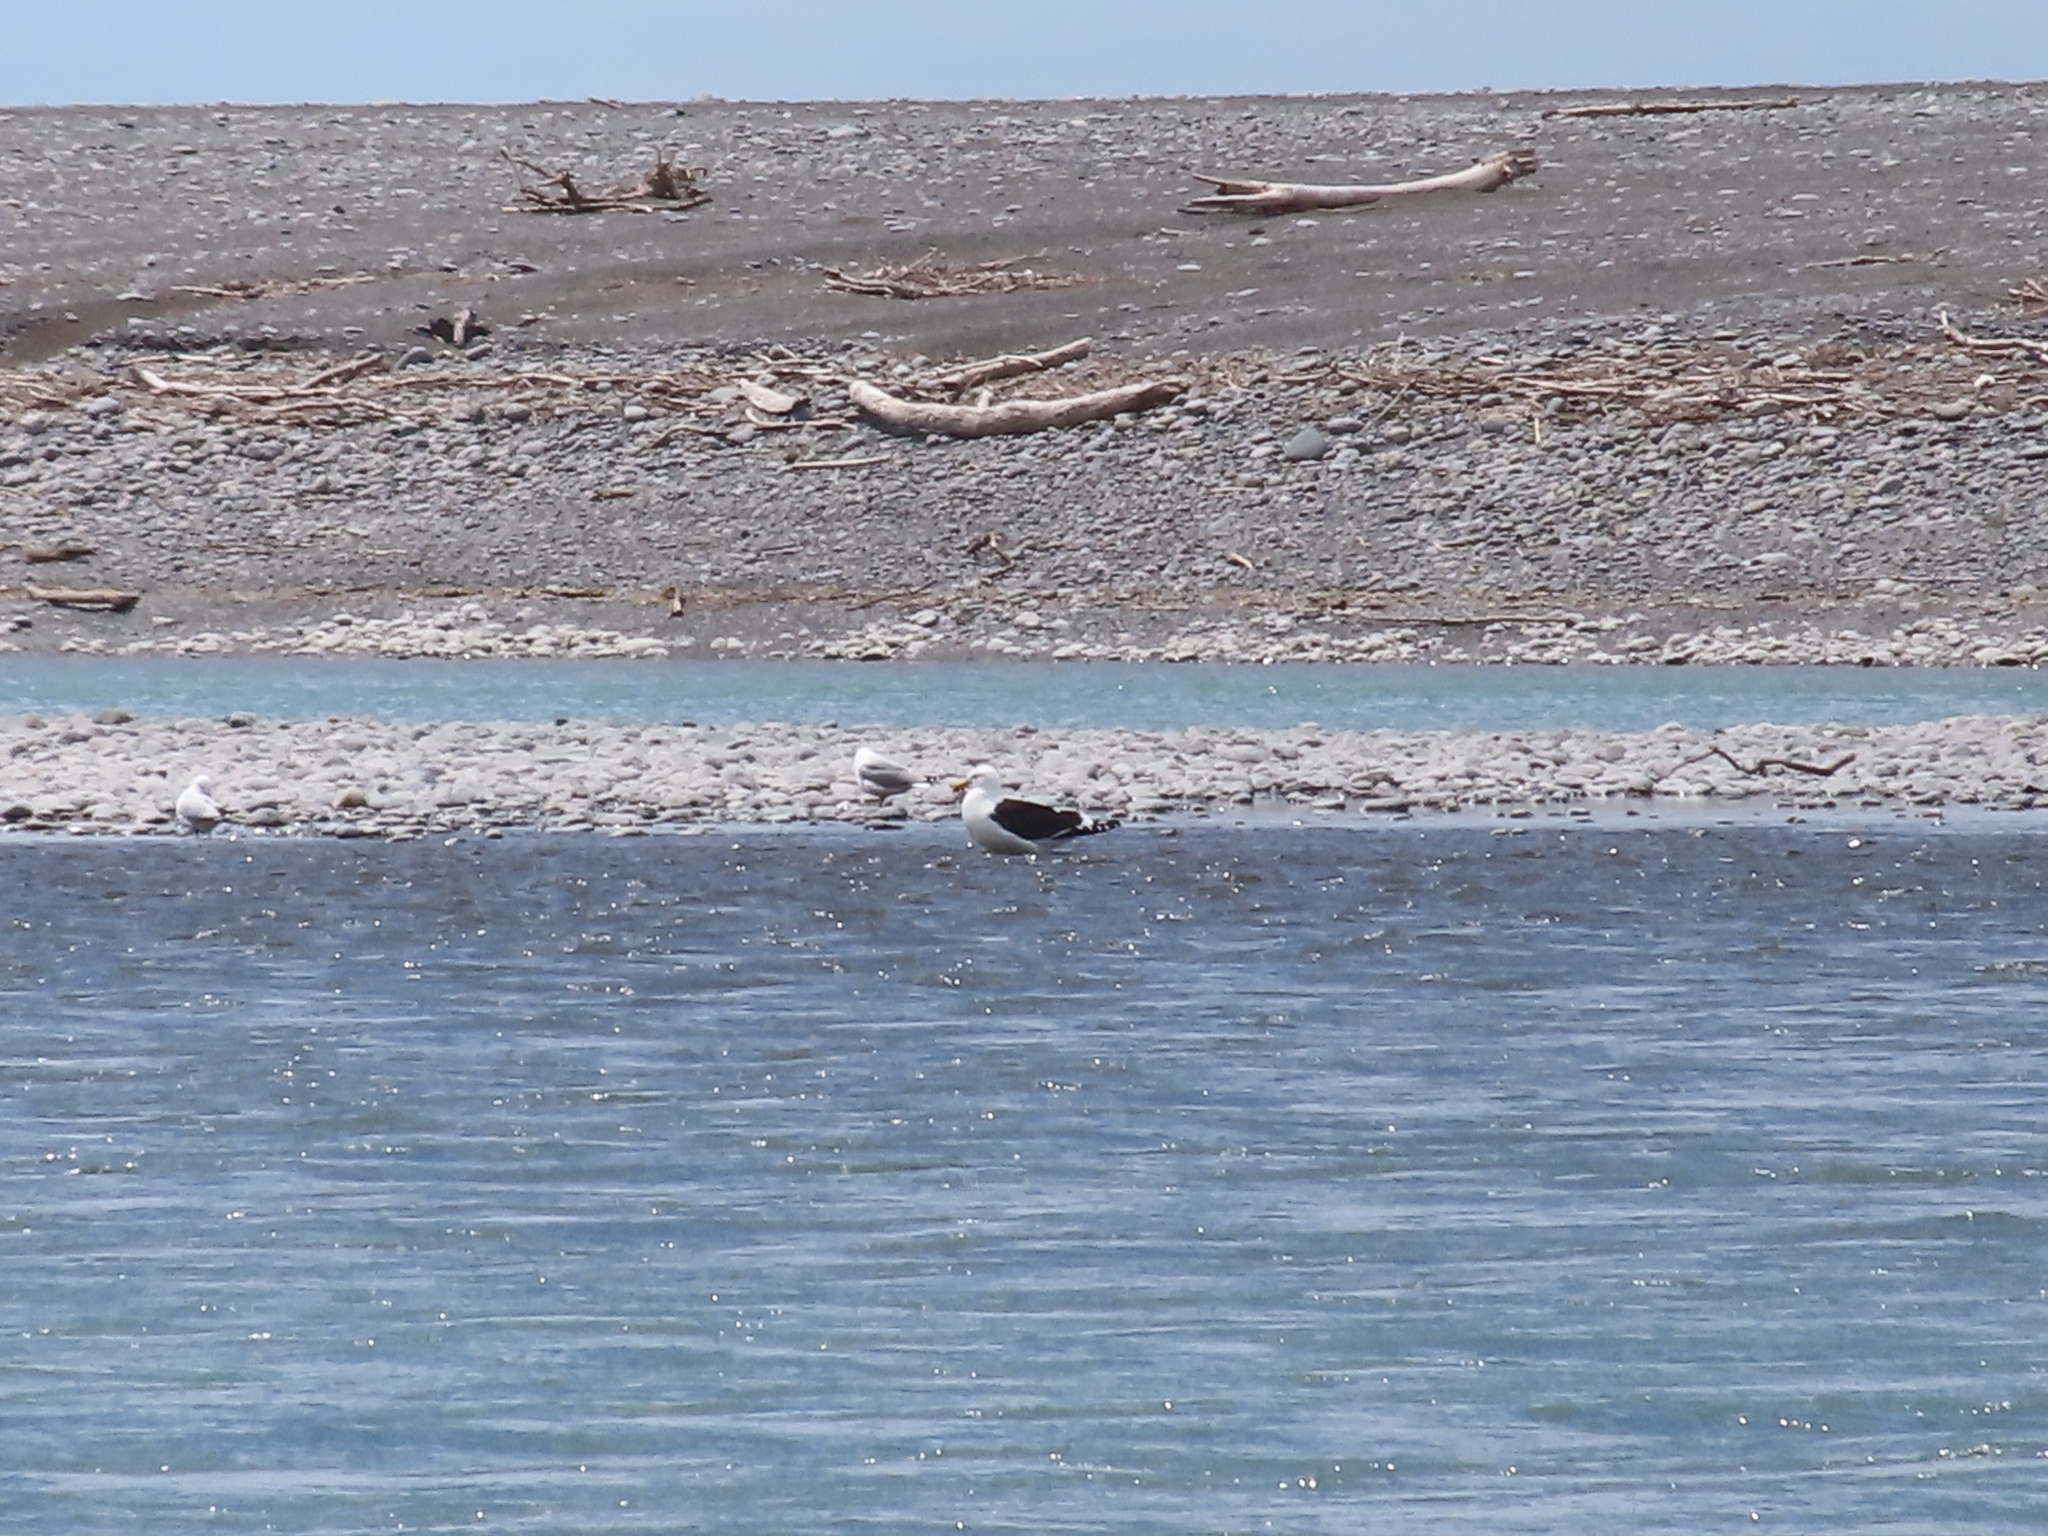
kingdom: Animalia
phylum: Chordata
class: Aves
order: Charadriiformes
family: Laridae
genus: Larus
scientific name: Larus dominicanus
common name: Kelp gull
